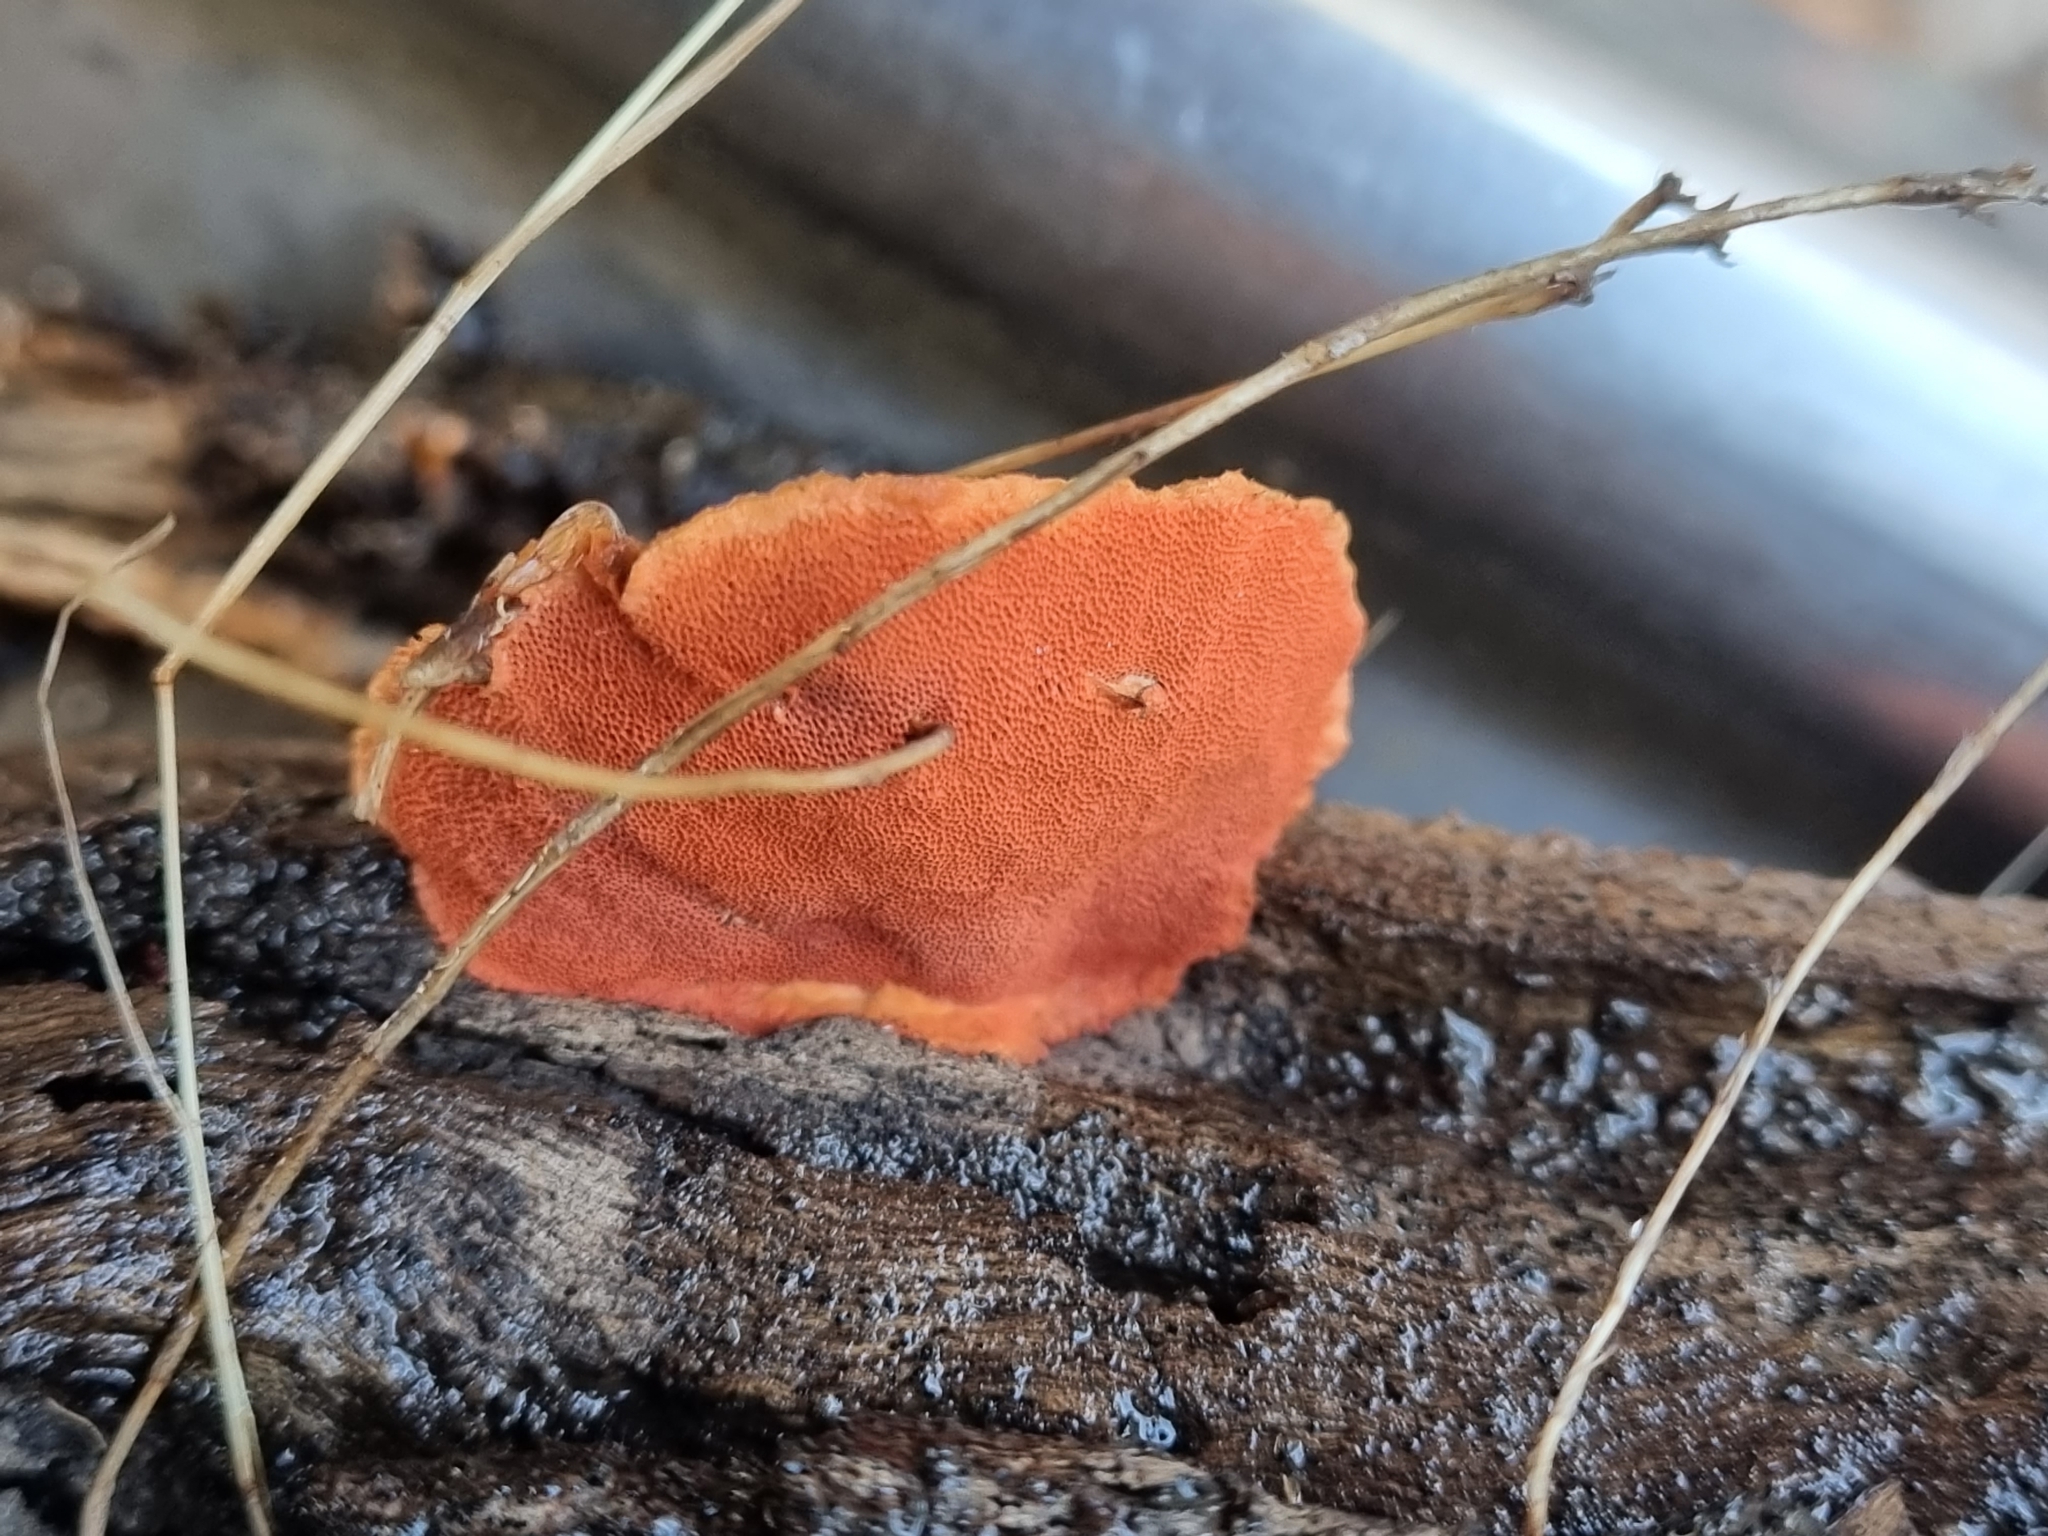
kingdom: Fungi
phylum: Basidiomycota
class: Agaricomycetes
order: Polyporales
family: Polyporaceae
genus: Trametes
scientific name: Trametes coccinea
